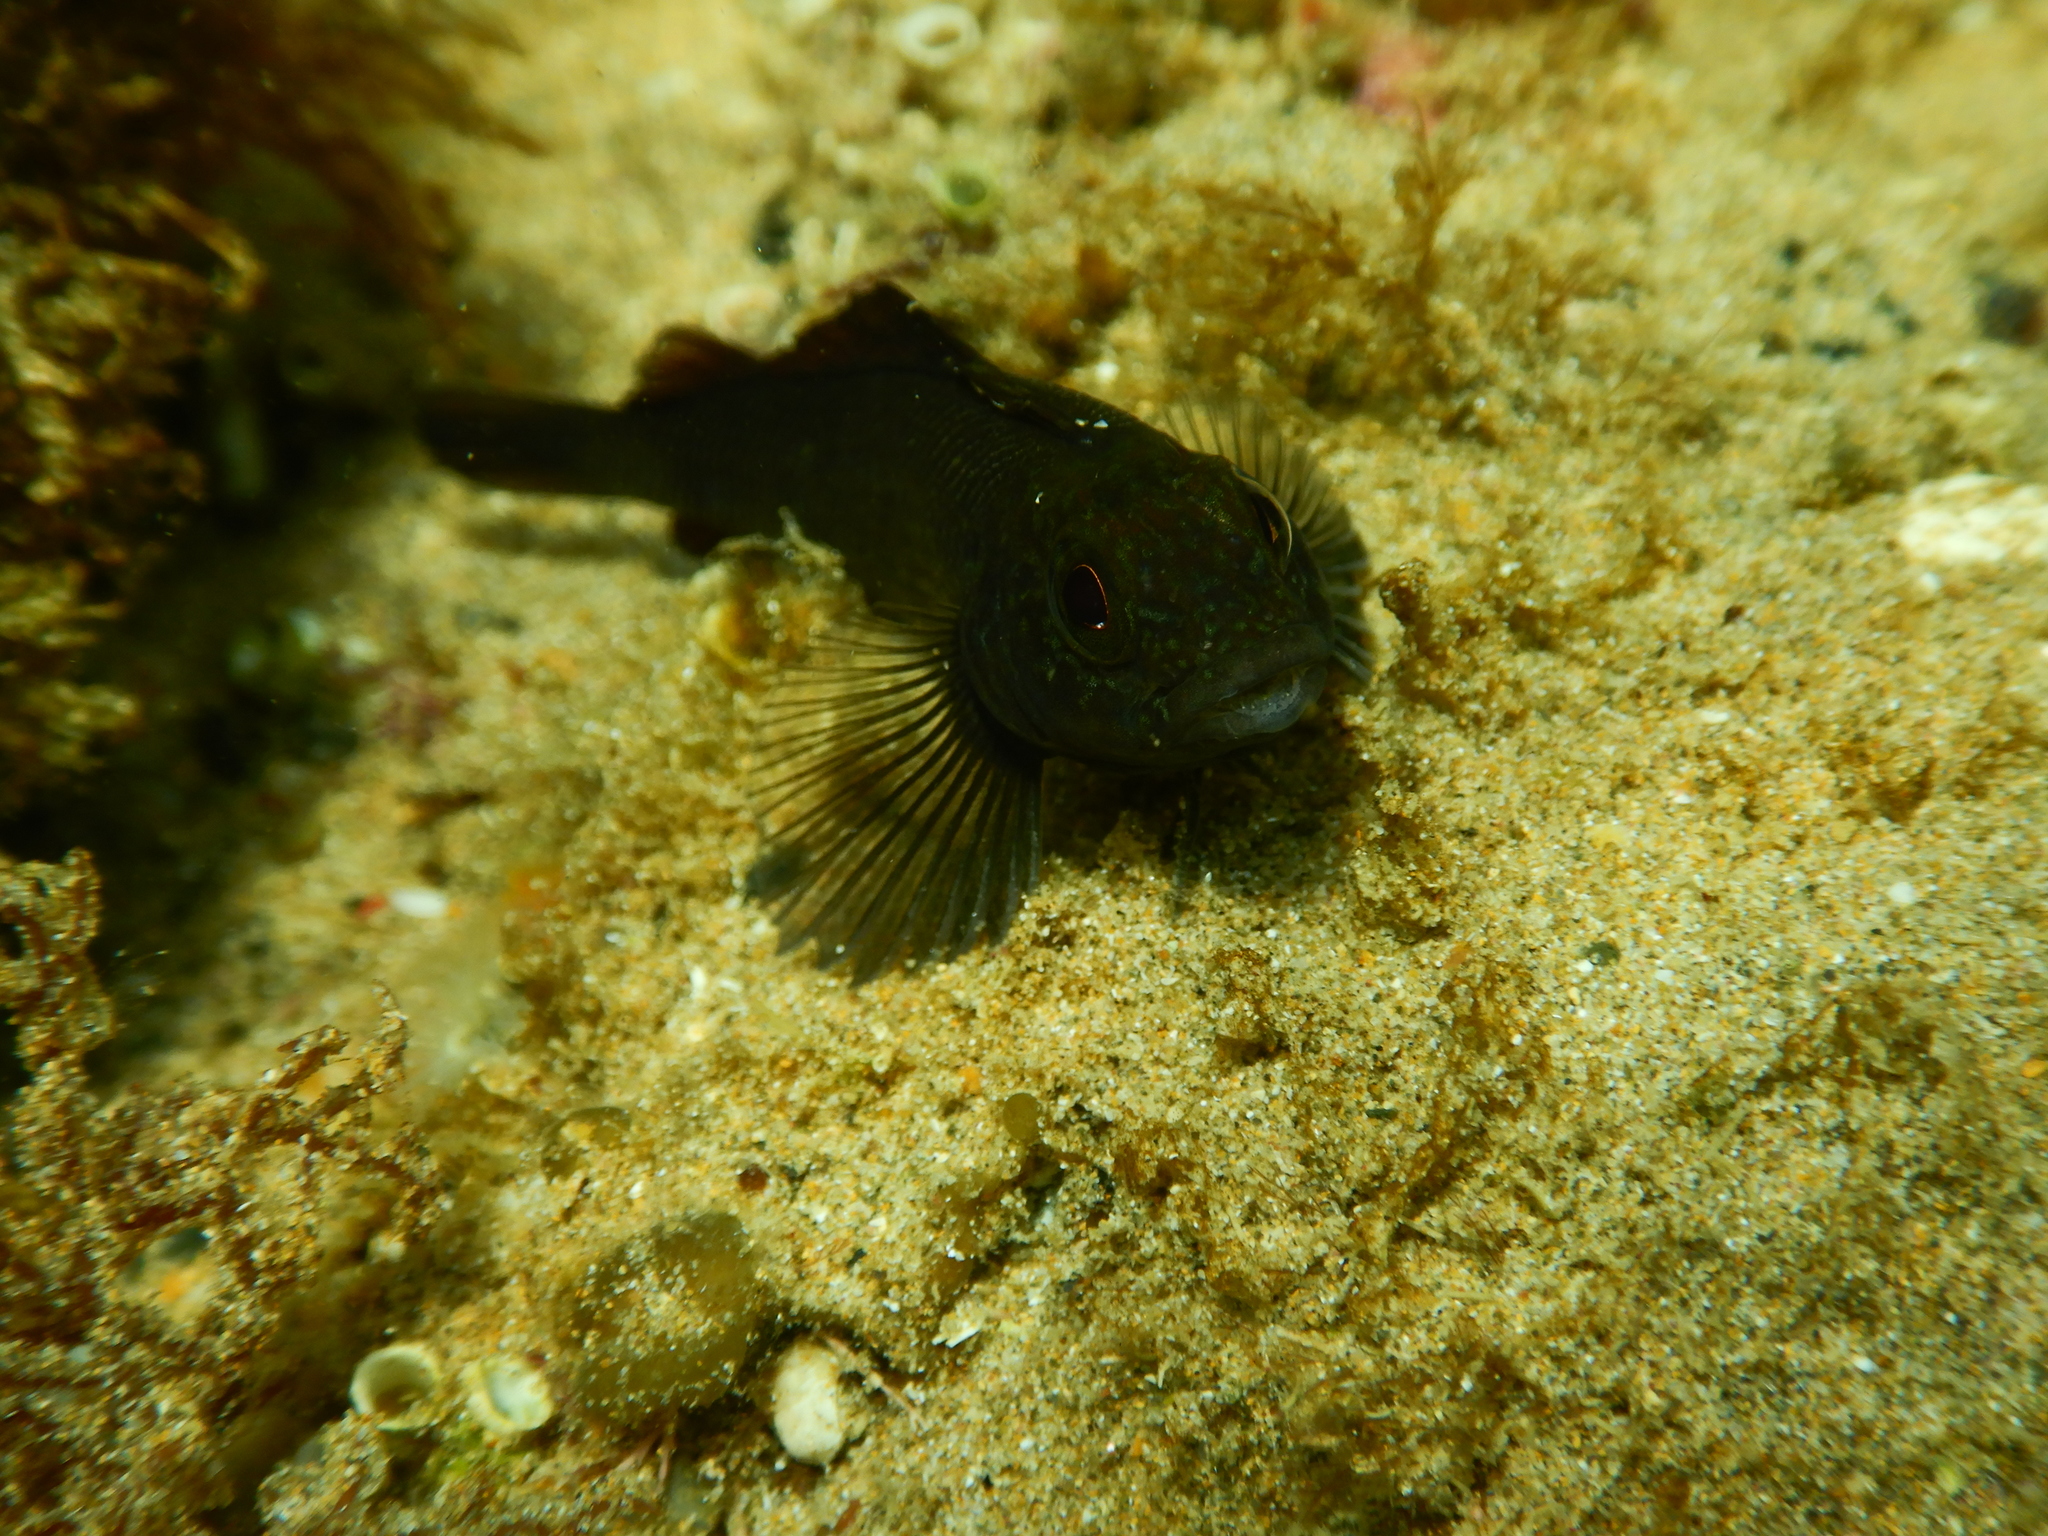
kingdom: Animalia
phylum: Chordata
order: Perciformes
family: Tripterygiidae
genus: Forsterygion
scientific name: Forsterygion lapillum
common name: Common triplefin
